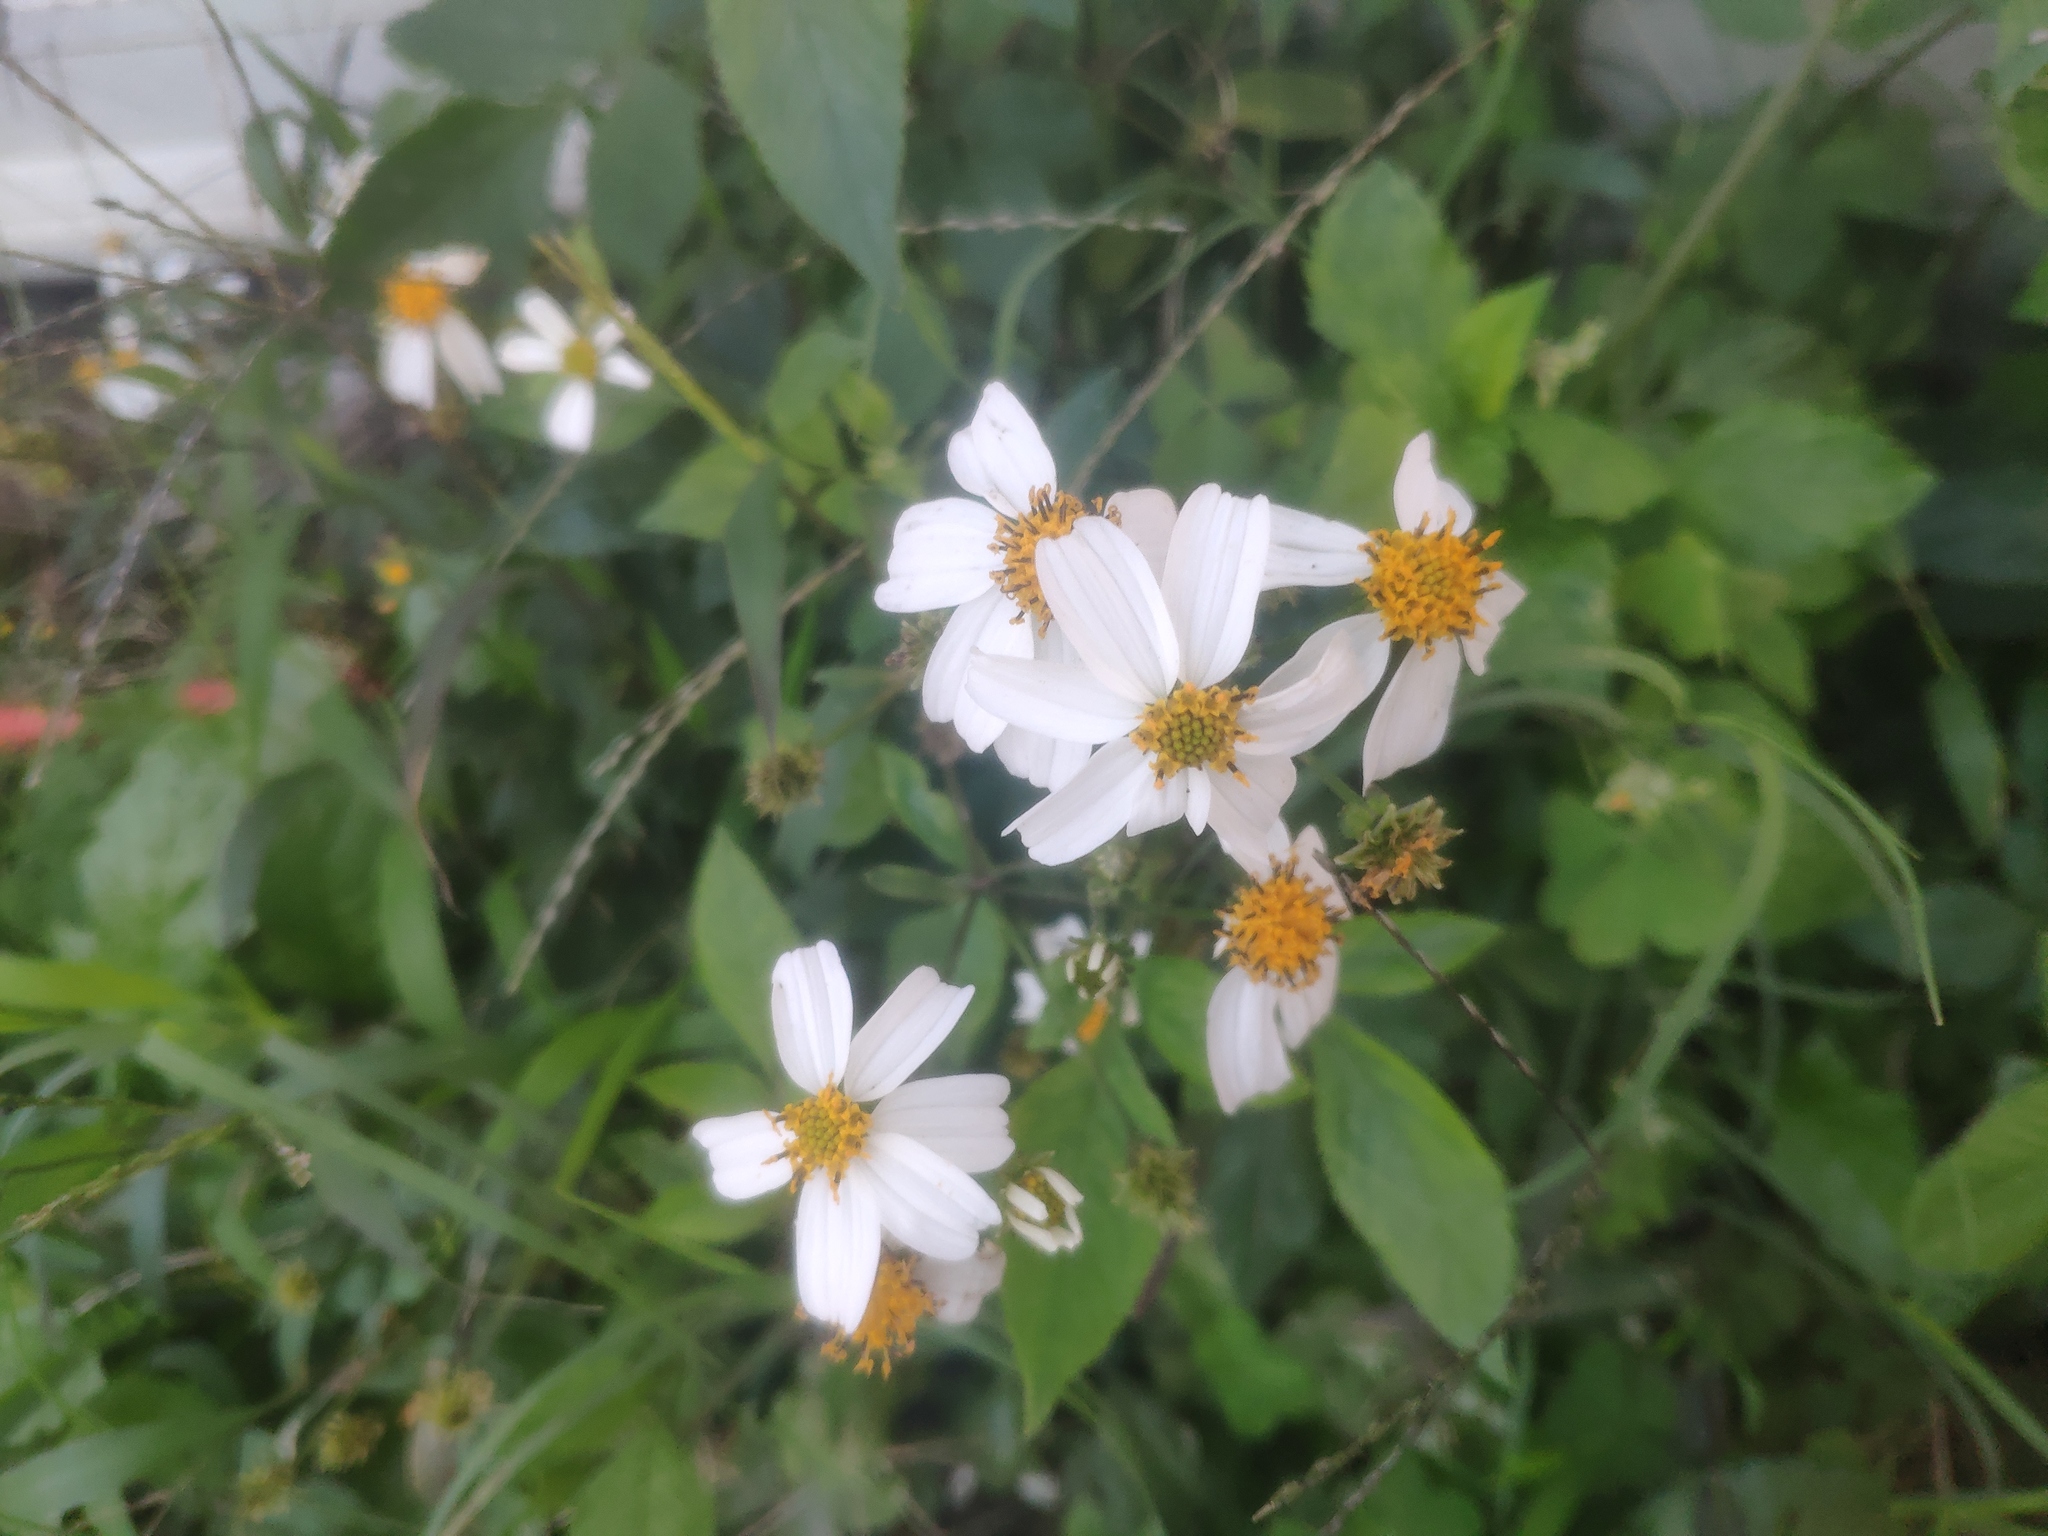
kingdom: Plantae
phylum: Tracheophyta
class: Magnoliopsida
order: Asterales
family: Asteraceae
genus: Bidens
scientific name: Bidens alba
